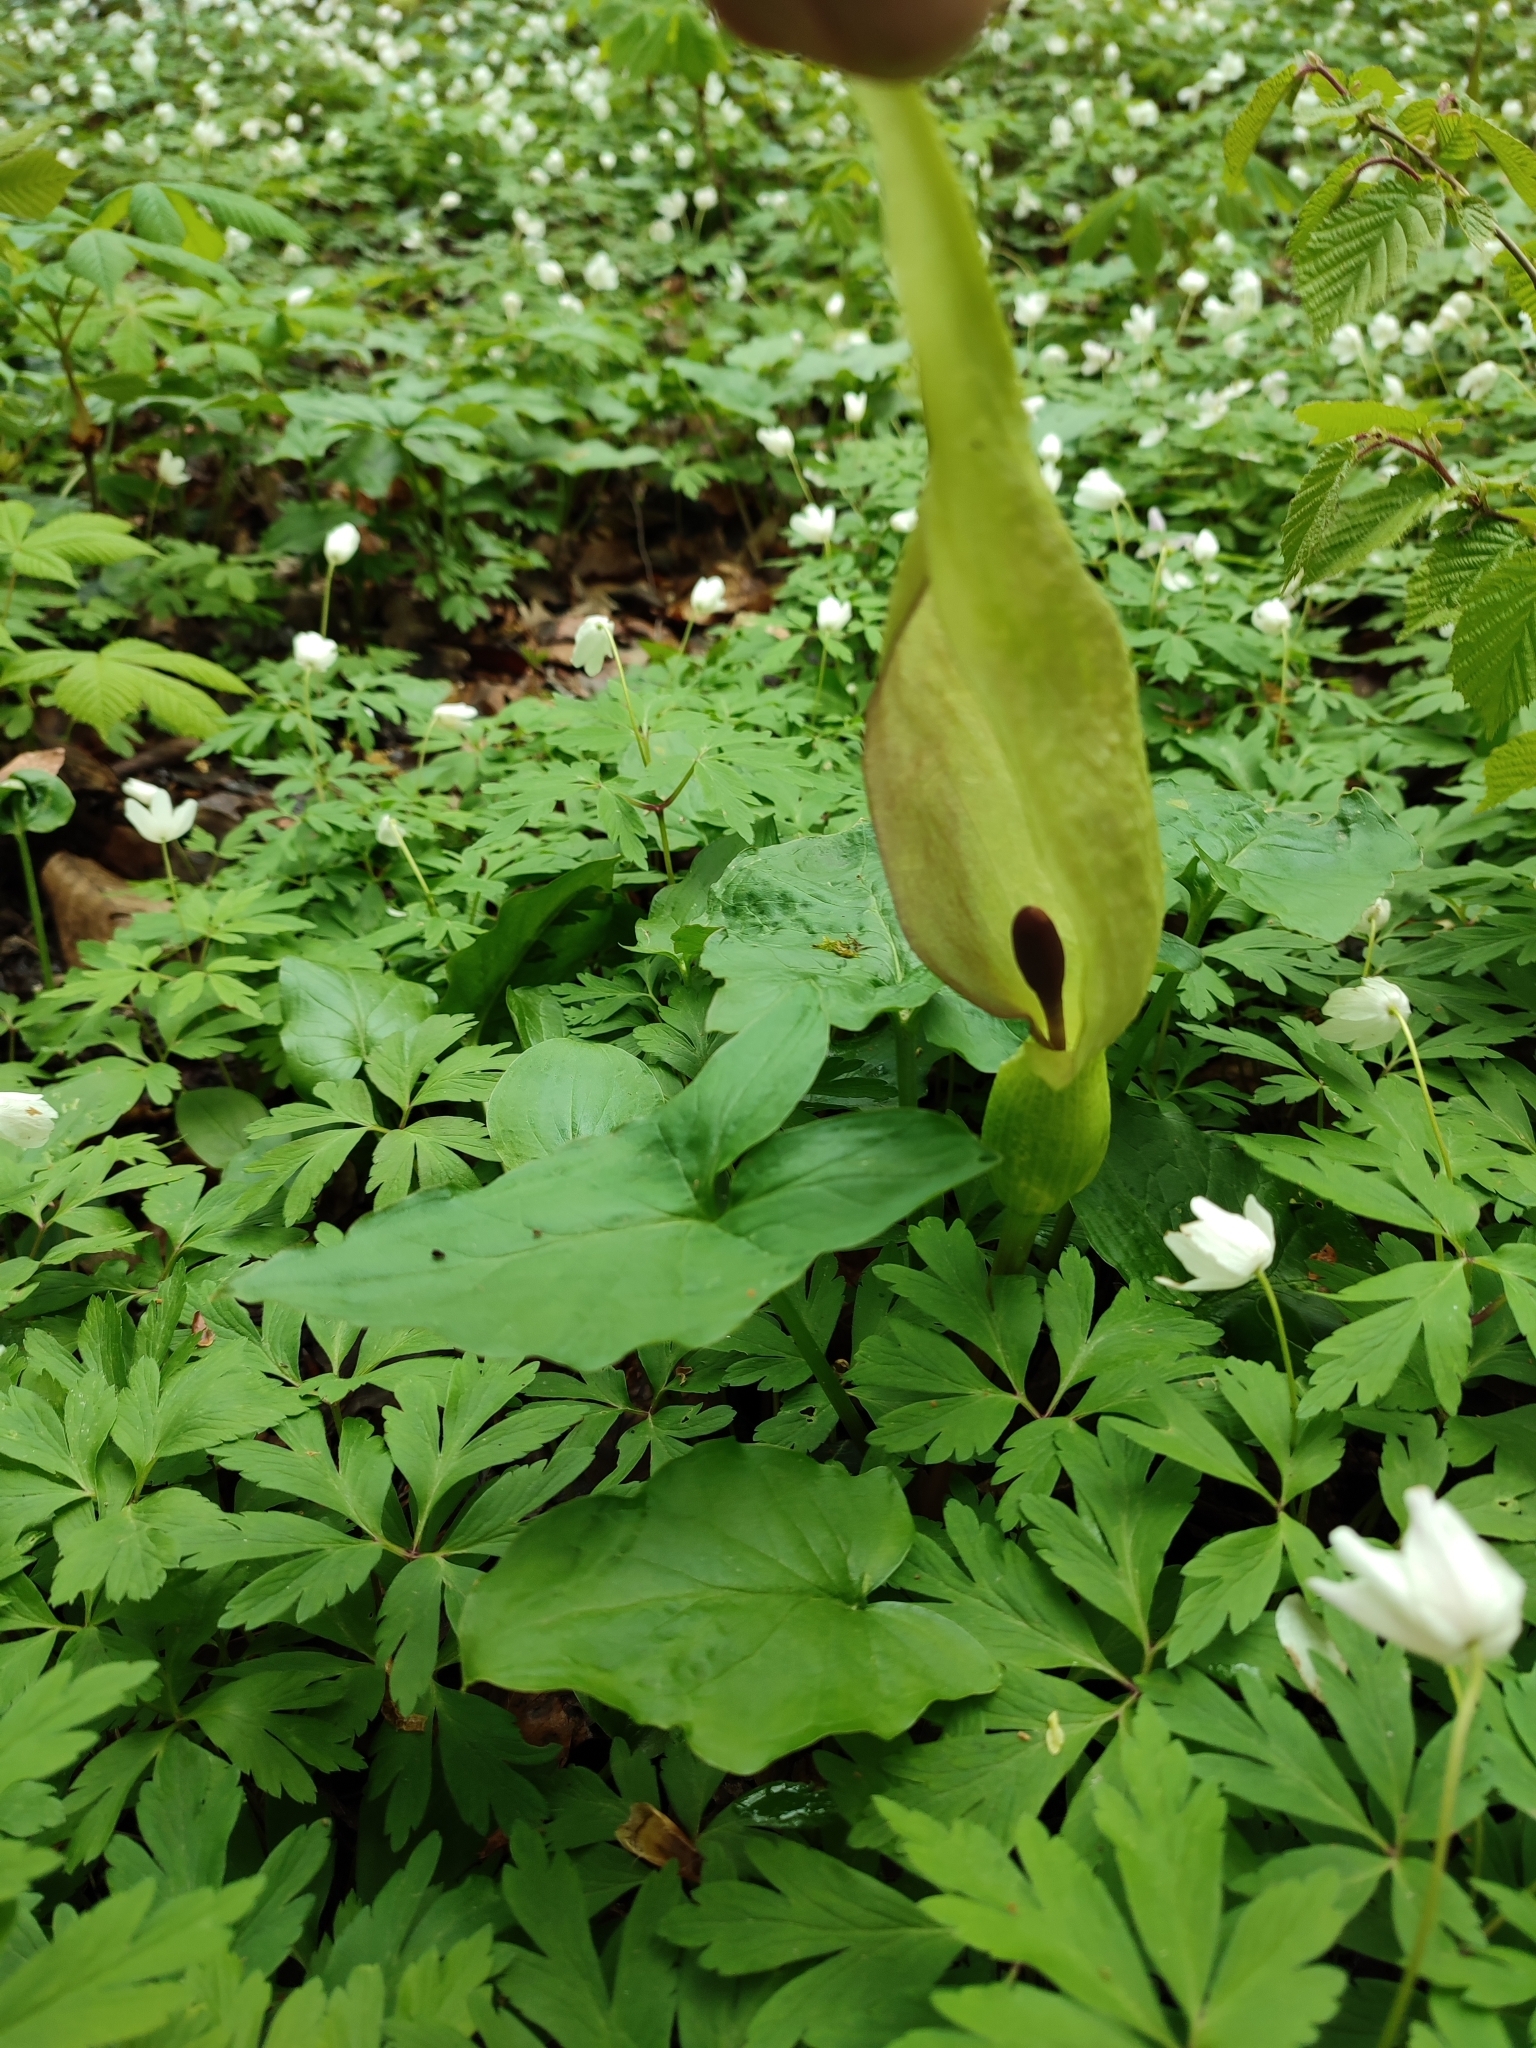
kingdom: Plantae
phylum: Tracheophyta
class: Liliopsida
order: Alismatales
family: Araceae
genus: Arum
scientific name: Arum maculatum
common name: Lords-and-ladies
